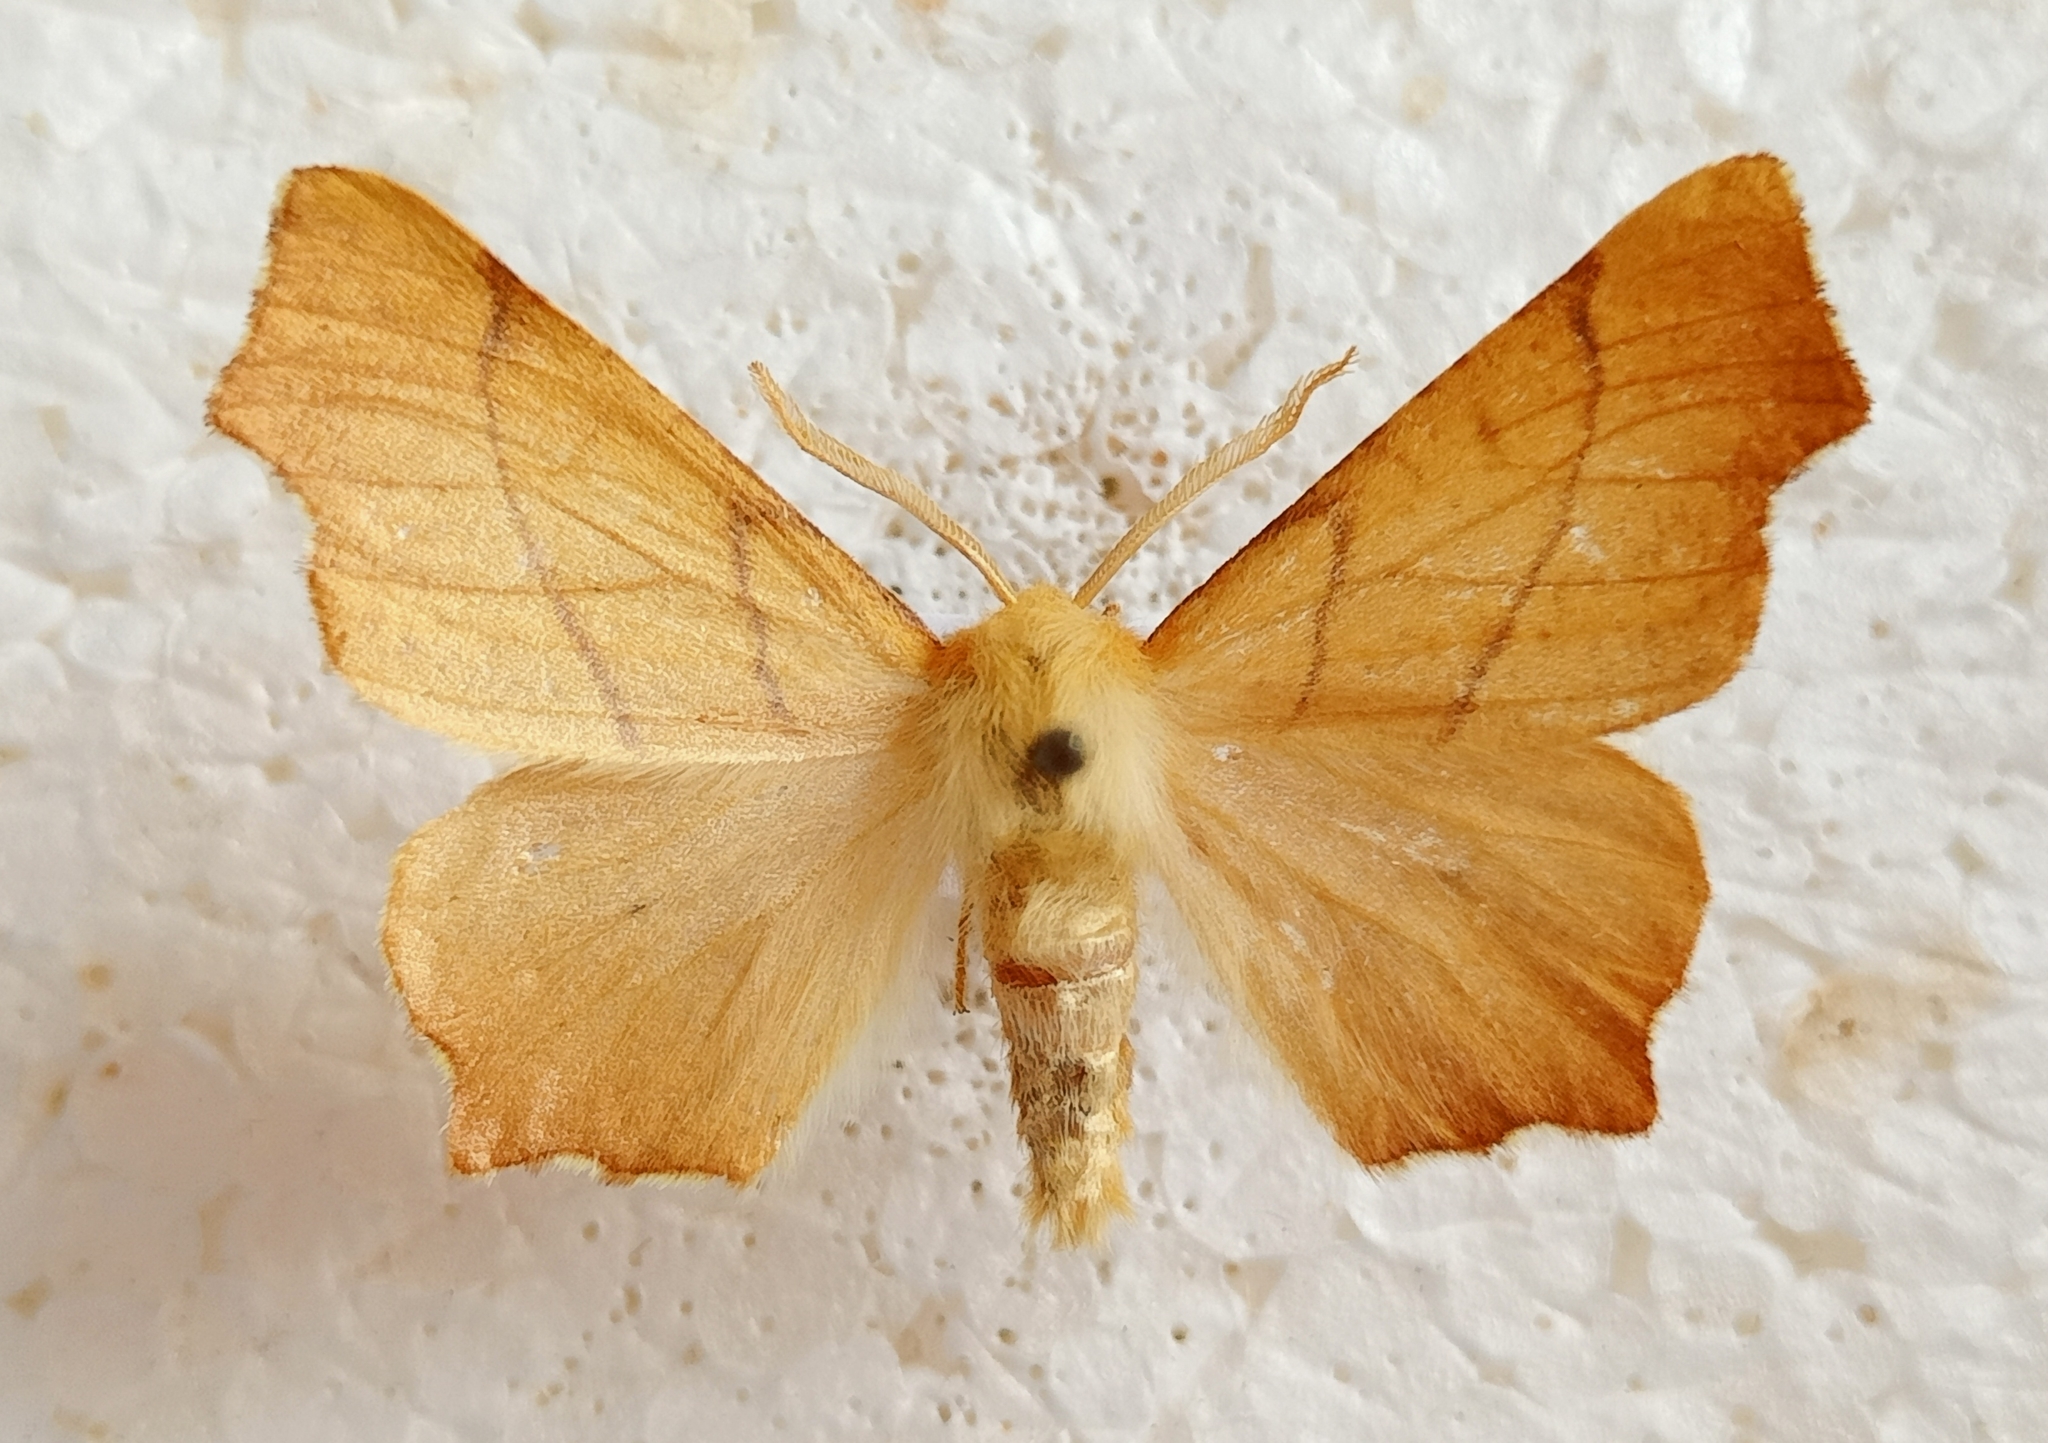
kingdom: Animalia
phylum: Arthropoda
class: Insecta
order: Lepidoptera
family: Geometridae
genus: Ennomos
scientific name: Ennomos erosaria
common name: September thorn
